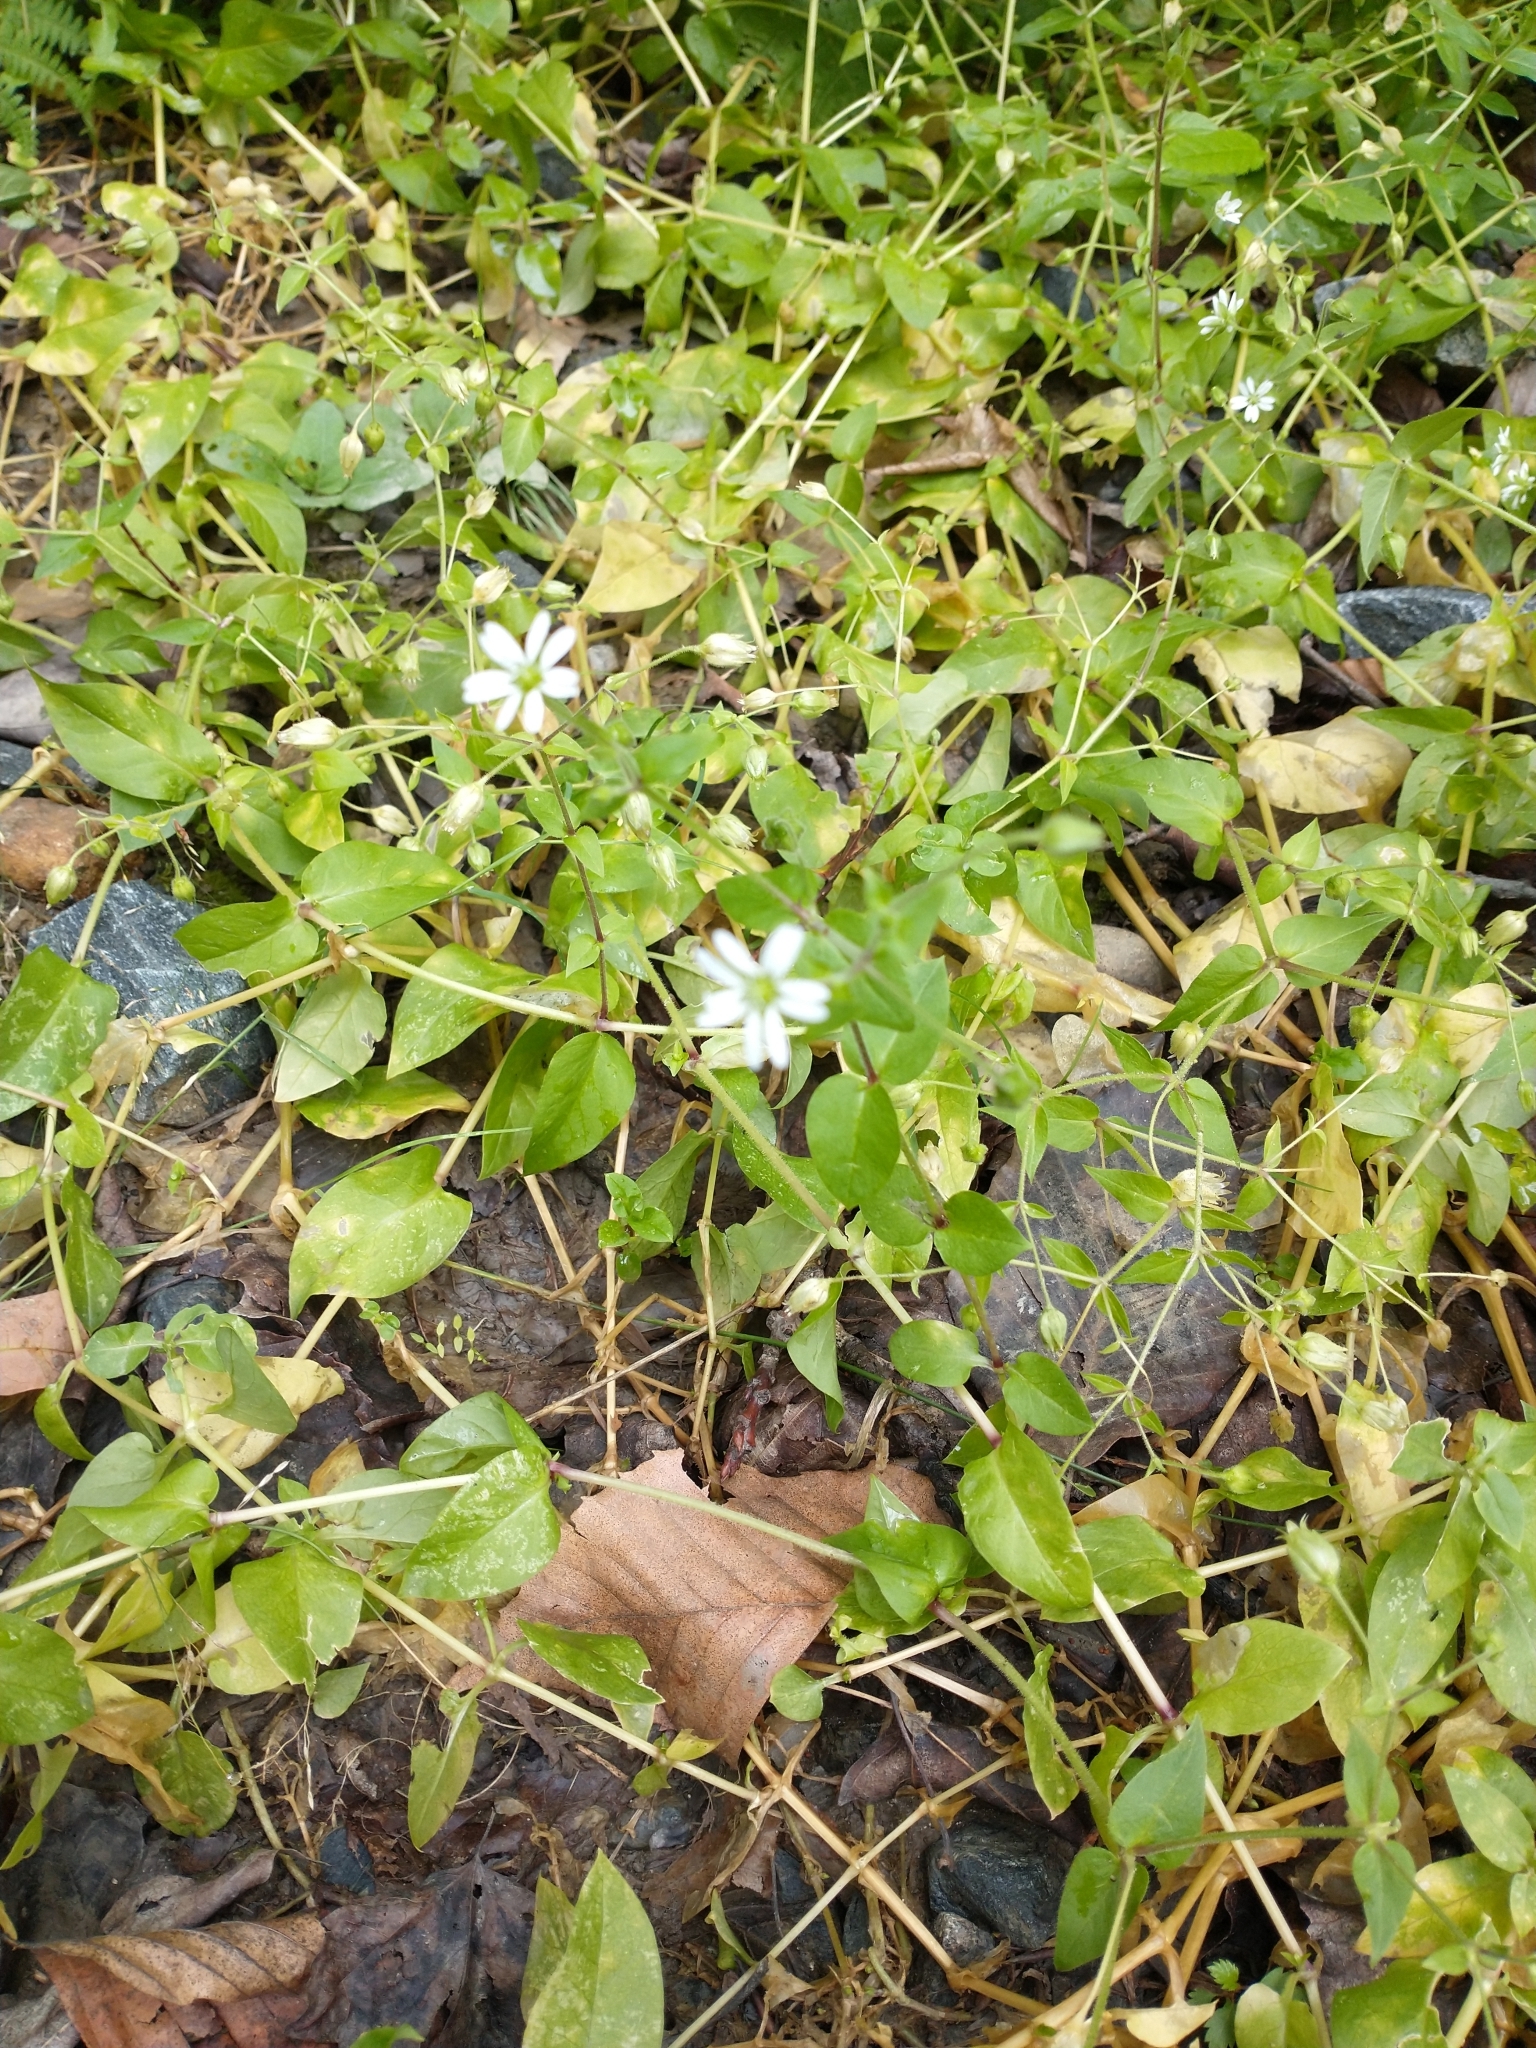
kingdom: Plantae
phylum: Tracheophyta
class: Magnoliopsida
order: Caryophyllales
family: Caryophyllaceae
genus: Stellaria
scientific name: Stellaria aquatica
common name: Water chickweed
